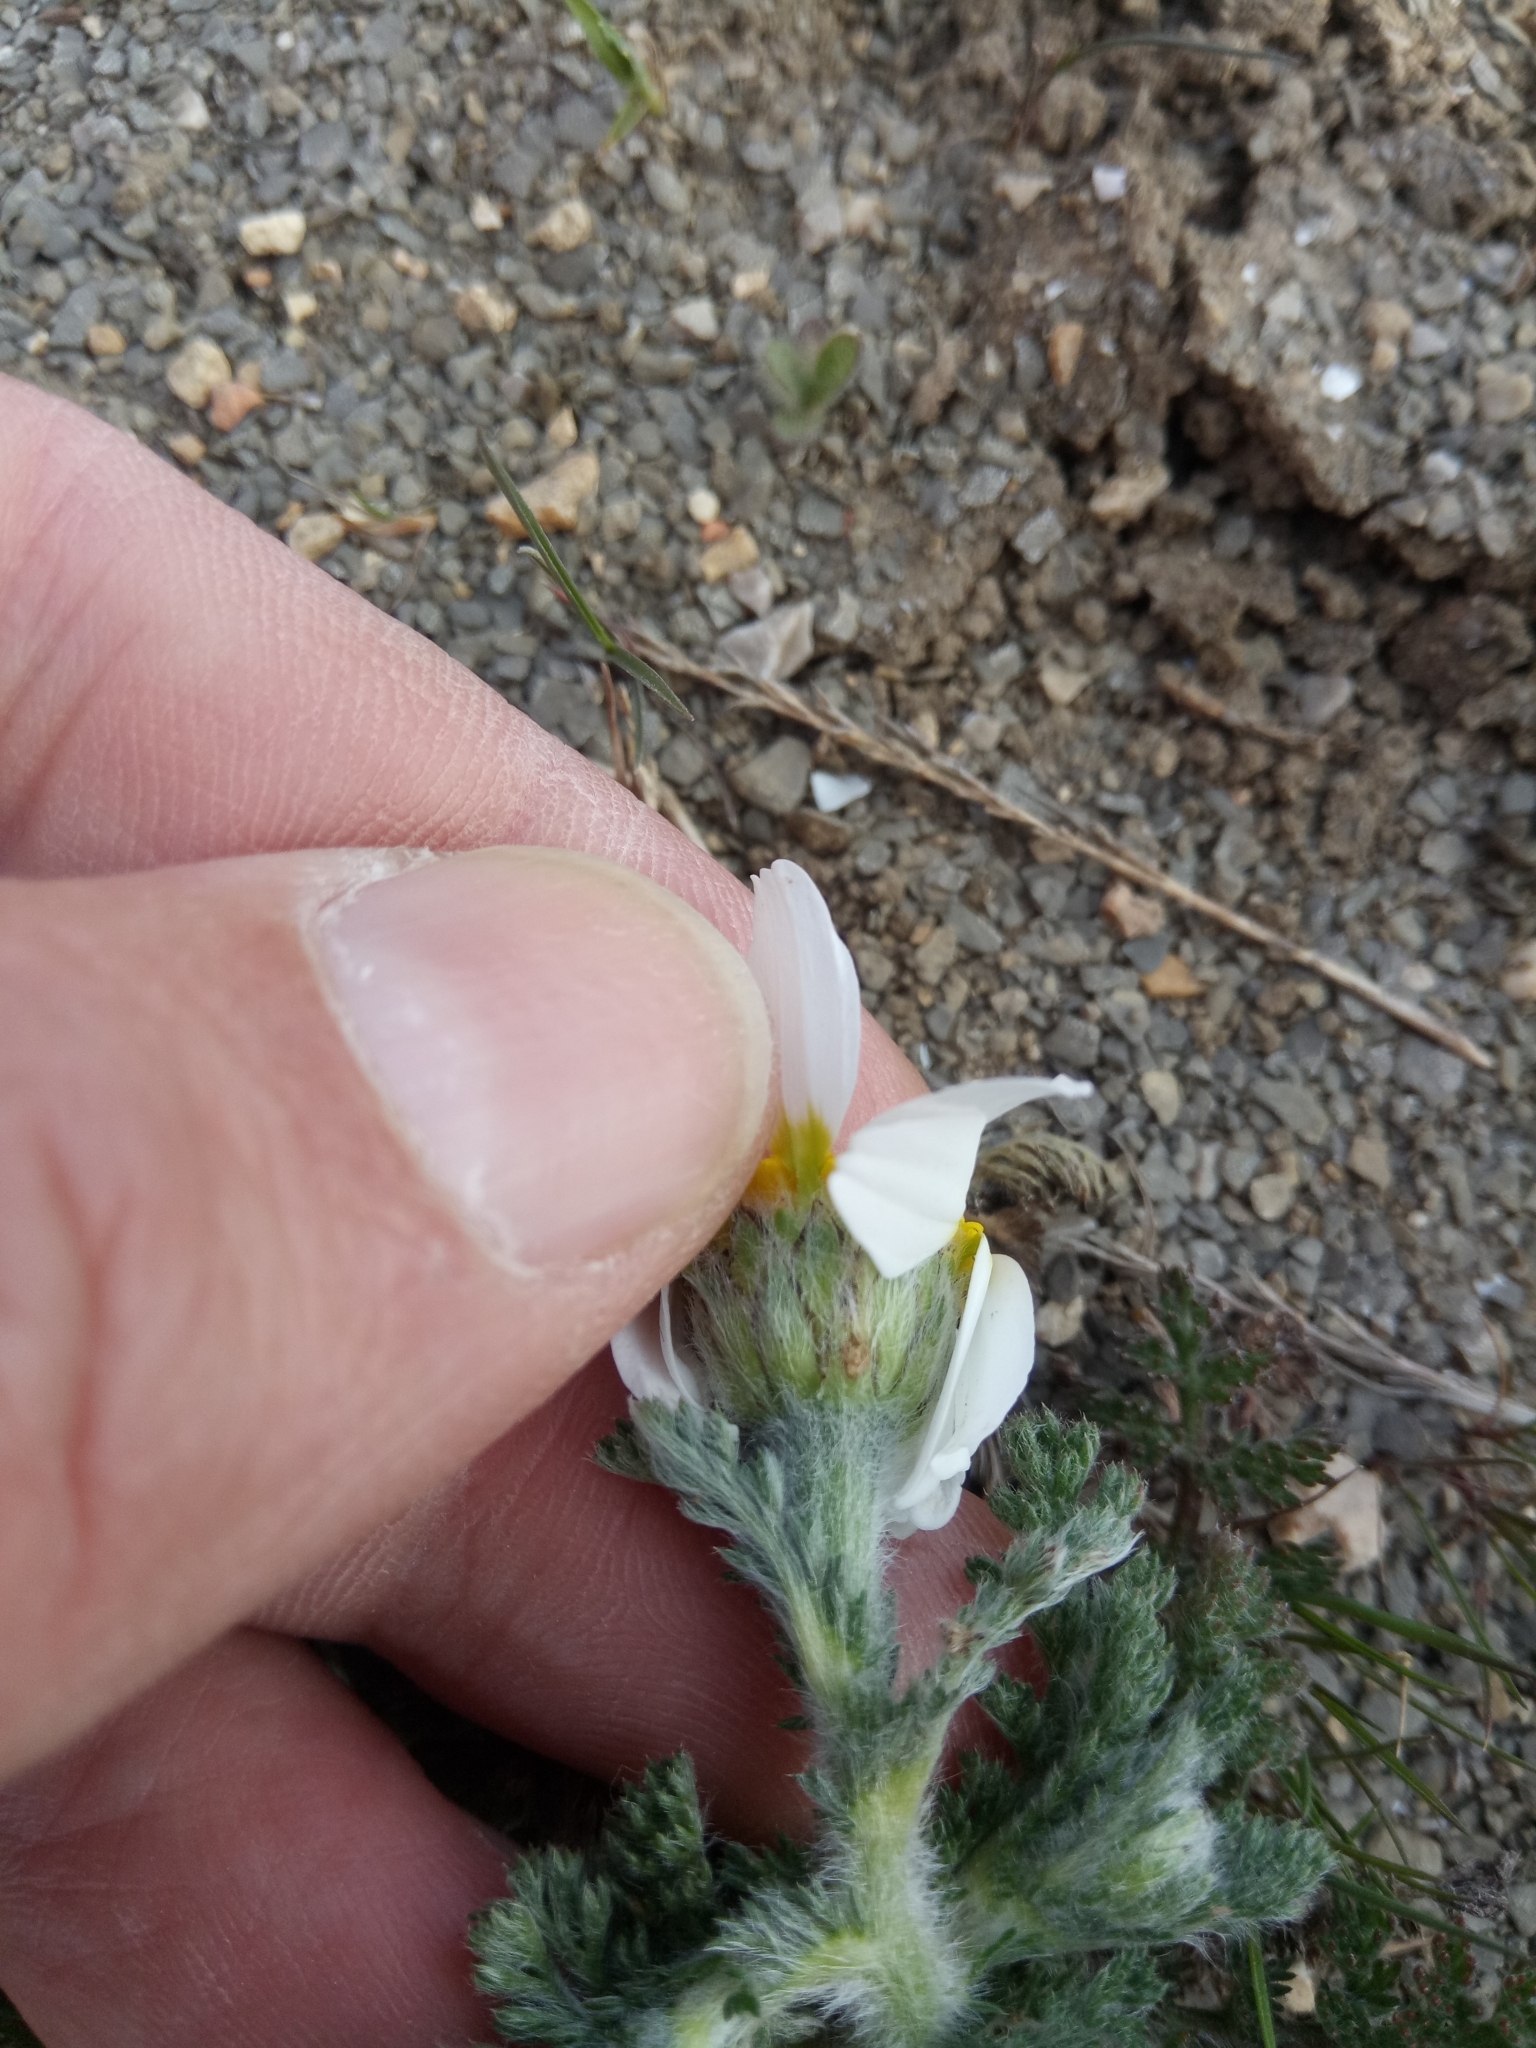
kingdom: Plantae
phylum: Tracheophyta
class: Magnoliopsida
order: Asterales
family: Asteraceae
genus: Anacyclus
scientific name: Anacyclus clavatus
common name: Whitebuttons
